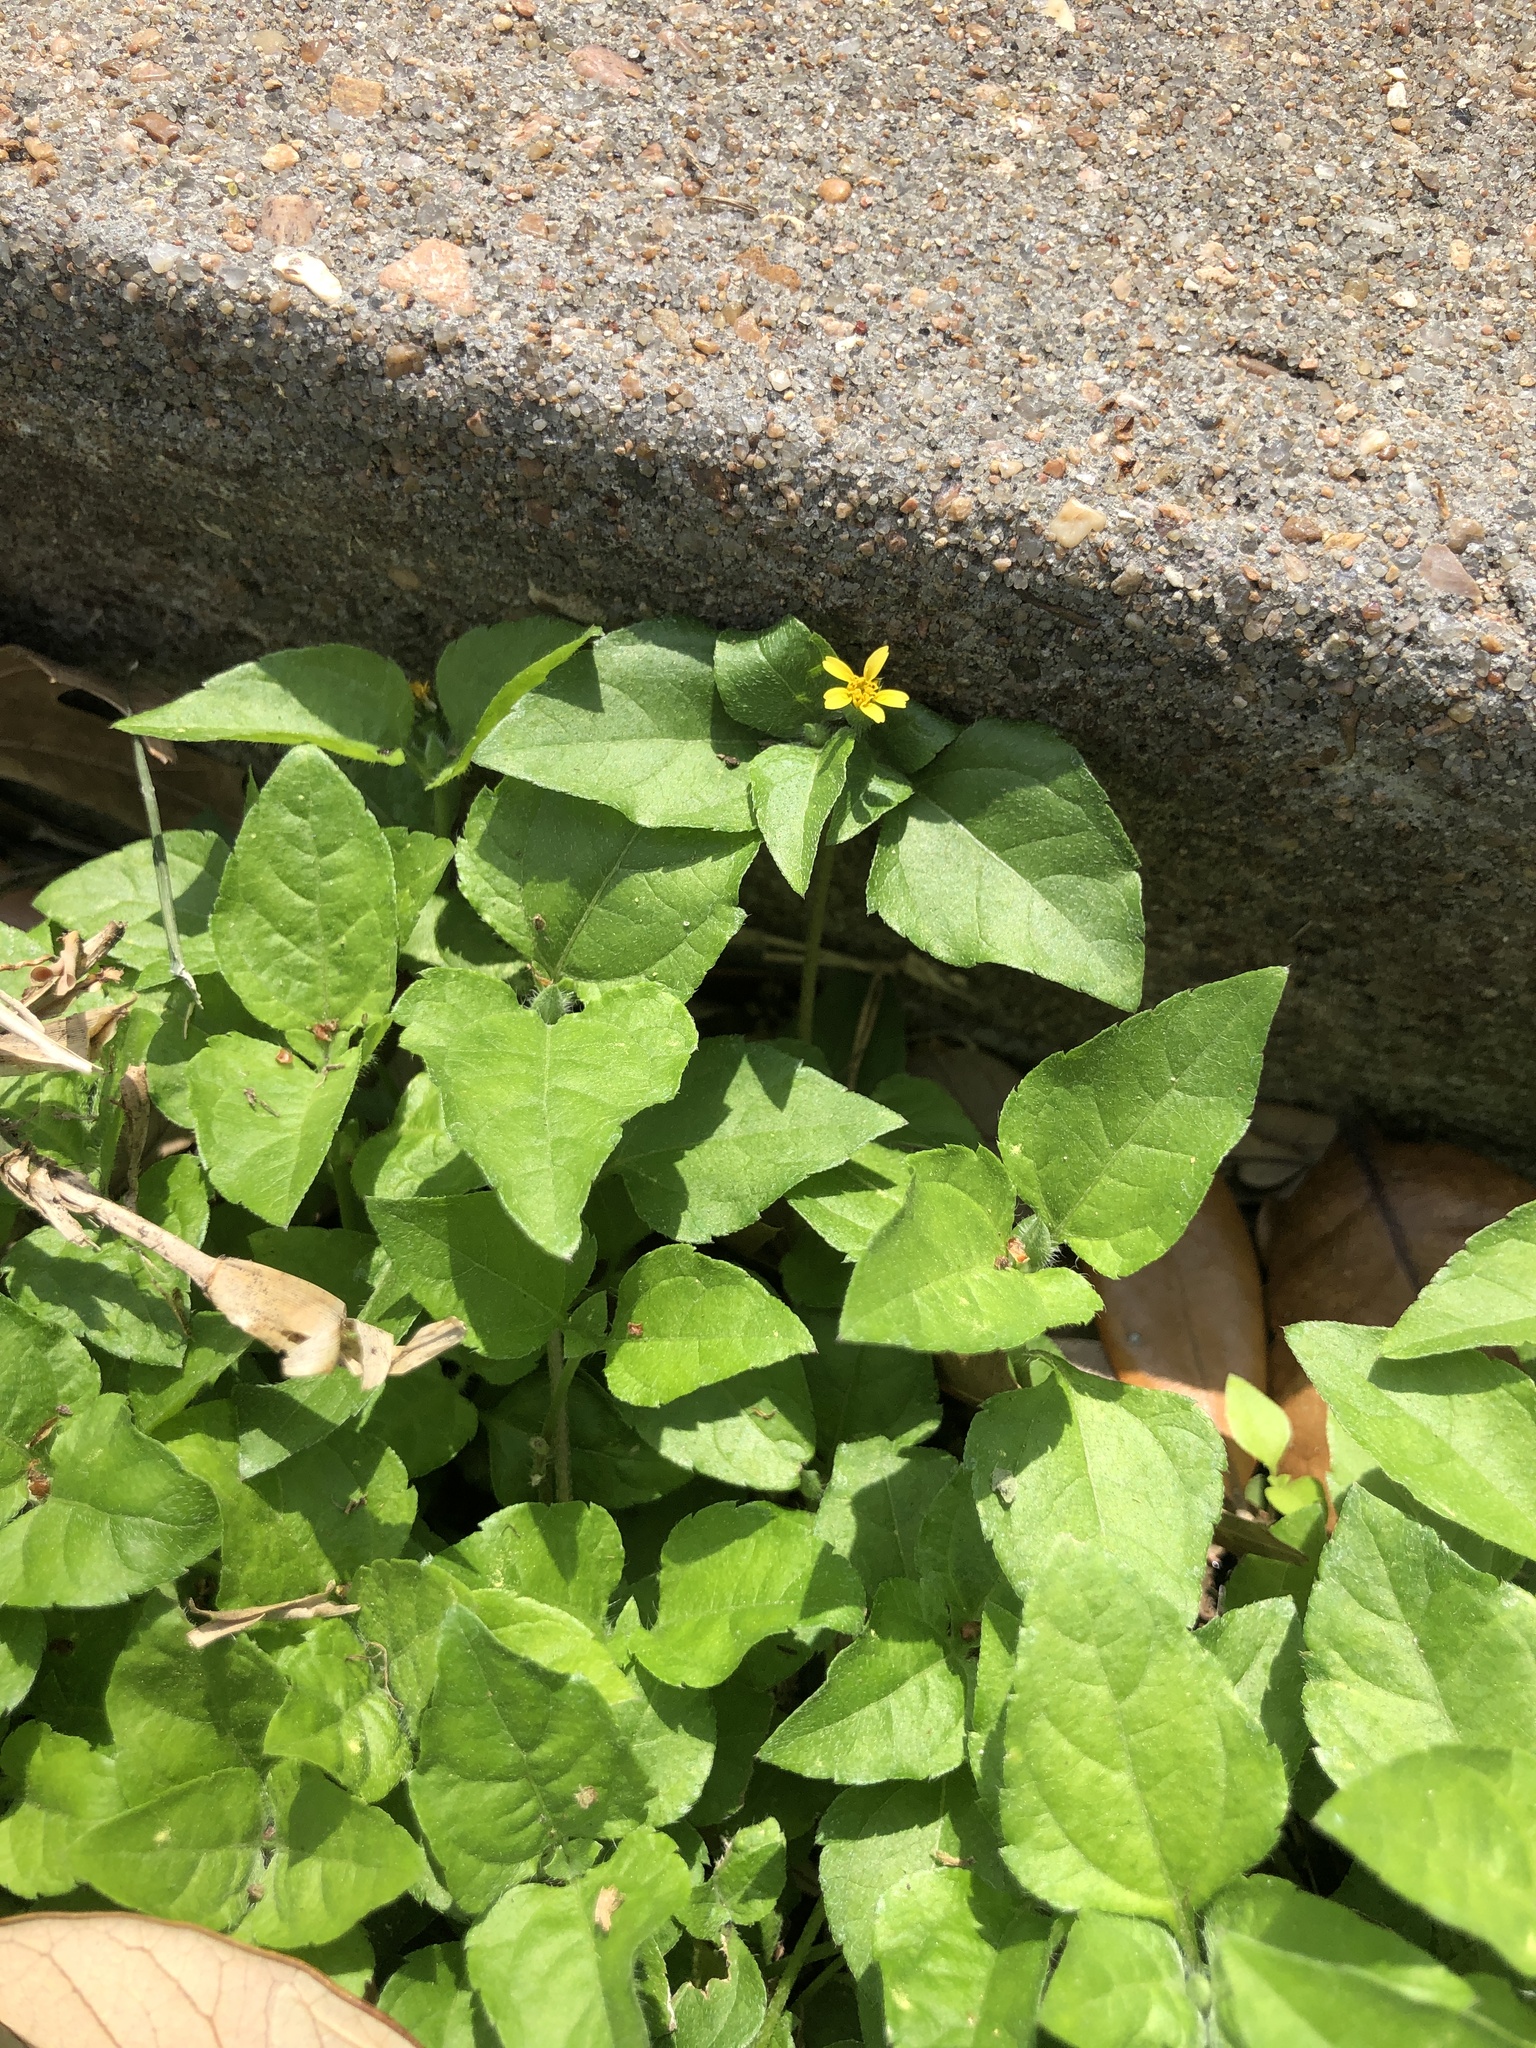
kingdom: Plantae
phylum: Tracheophyta
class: Magnoliopsida
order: Asterales
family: Asteraceae
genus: Calyptocarpus
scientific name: Calyptocarpus vialis
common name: Straggler daisy
